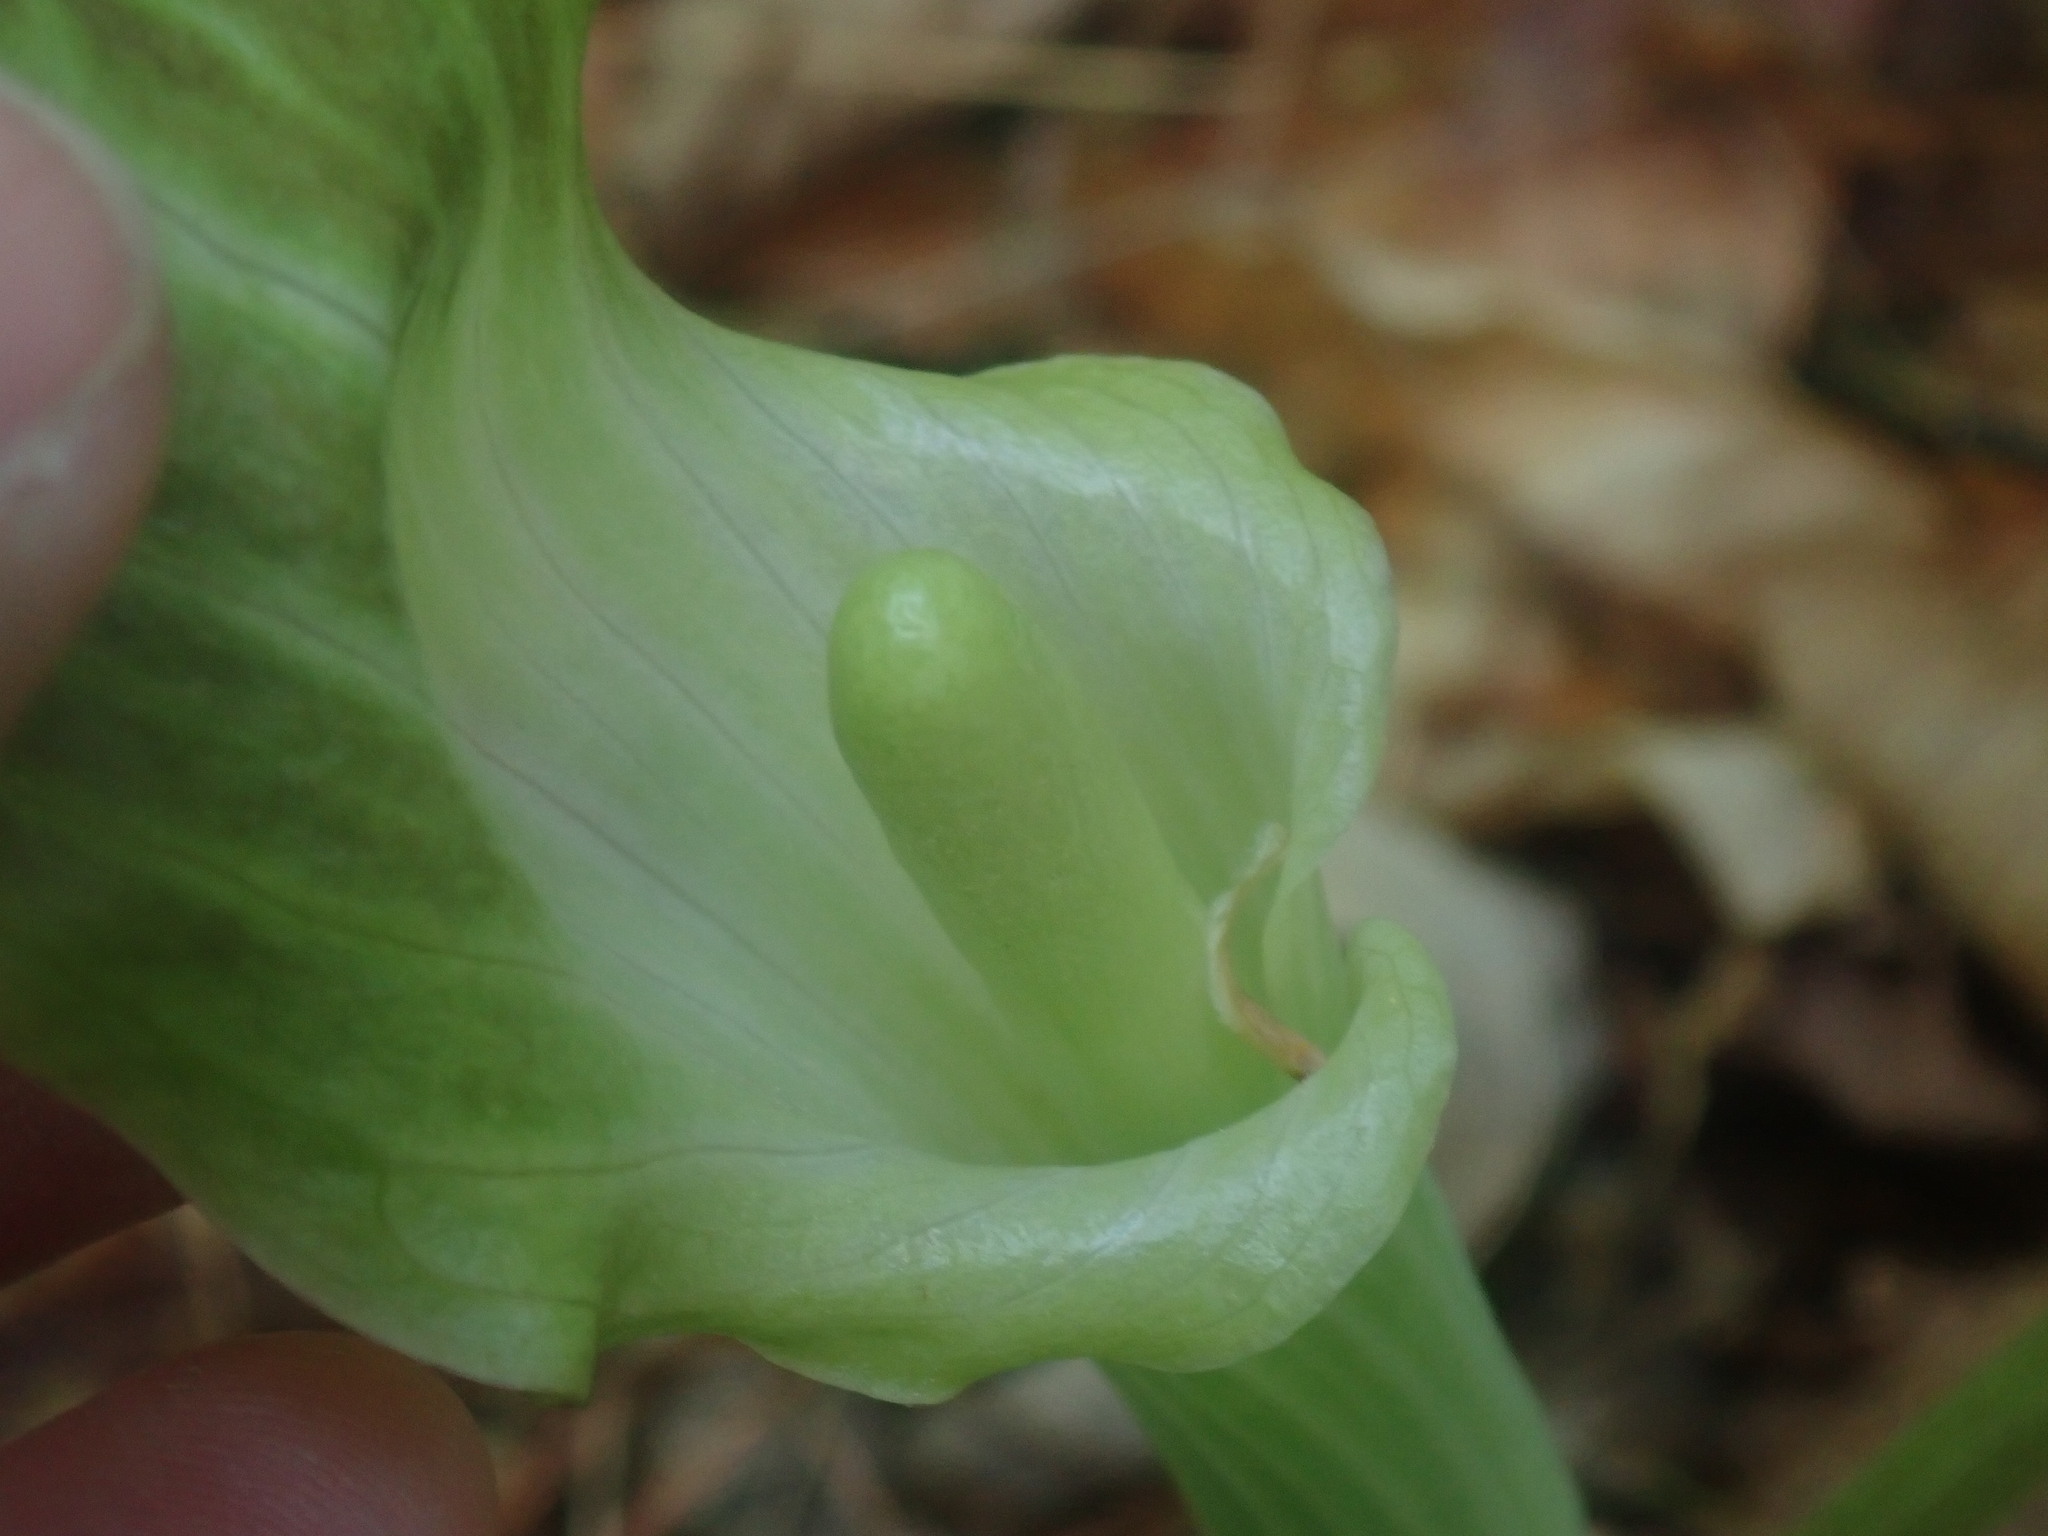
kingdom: Plantae
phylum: Tracheophyta
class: Liliopsida
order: Alismatales
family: Araceae
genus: Arisaema
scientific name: Arisaema triphyllum
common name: Jack-in-the-pulpit
